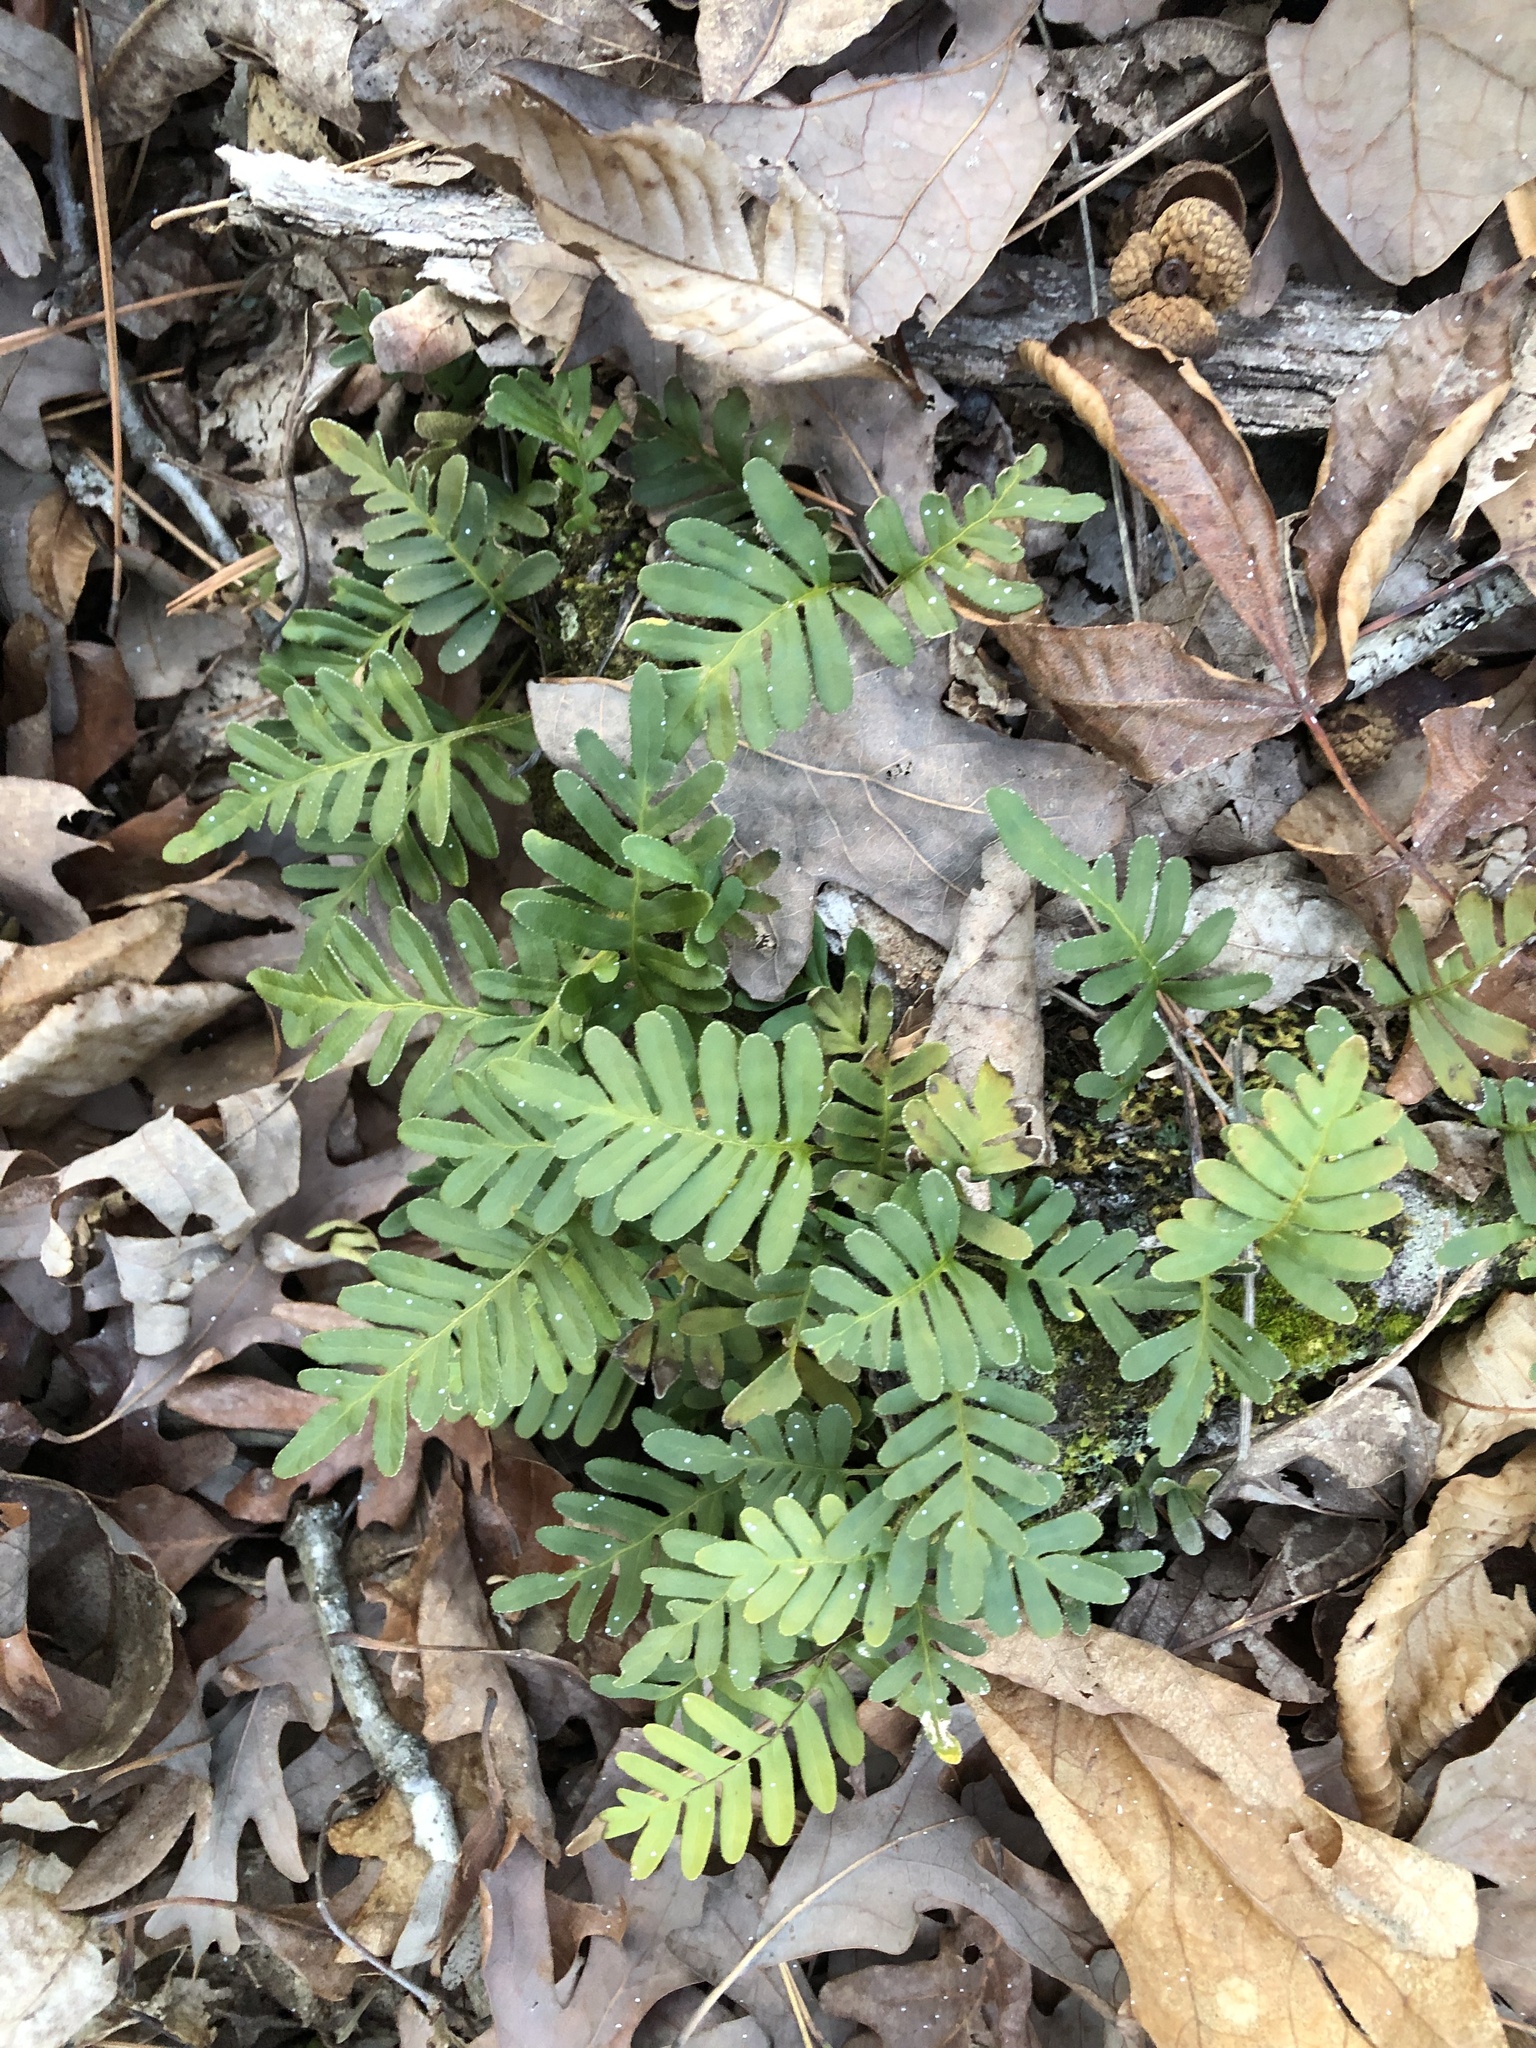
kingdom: Plantae
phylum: Tracheophyta
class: Polypodiopsida
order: Polypodiales
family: Polypodiaceae
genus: Pleopeltis
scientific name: Pleopeltis michauxiana
